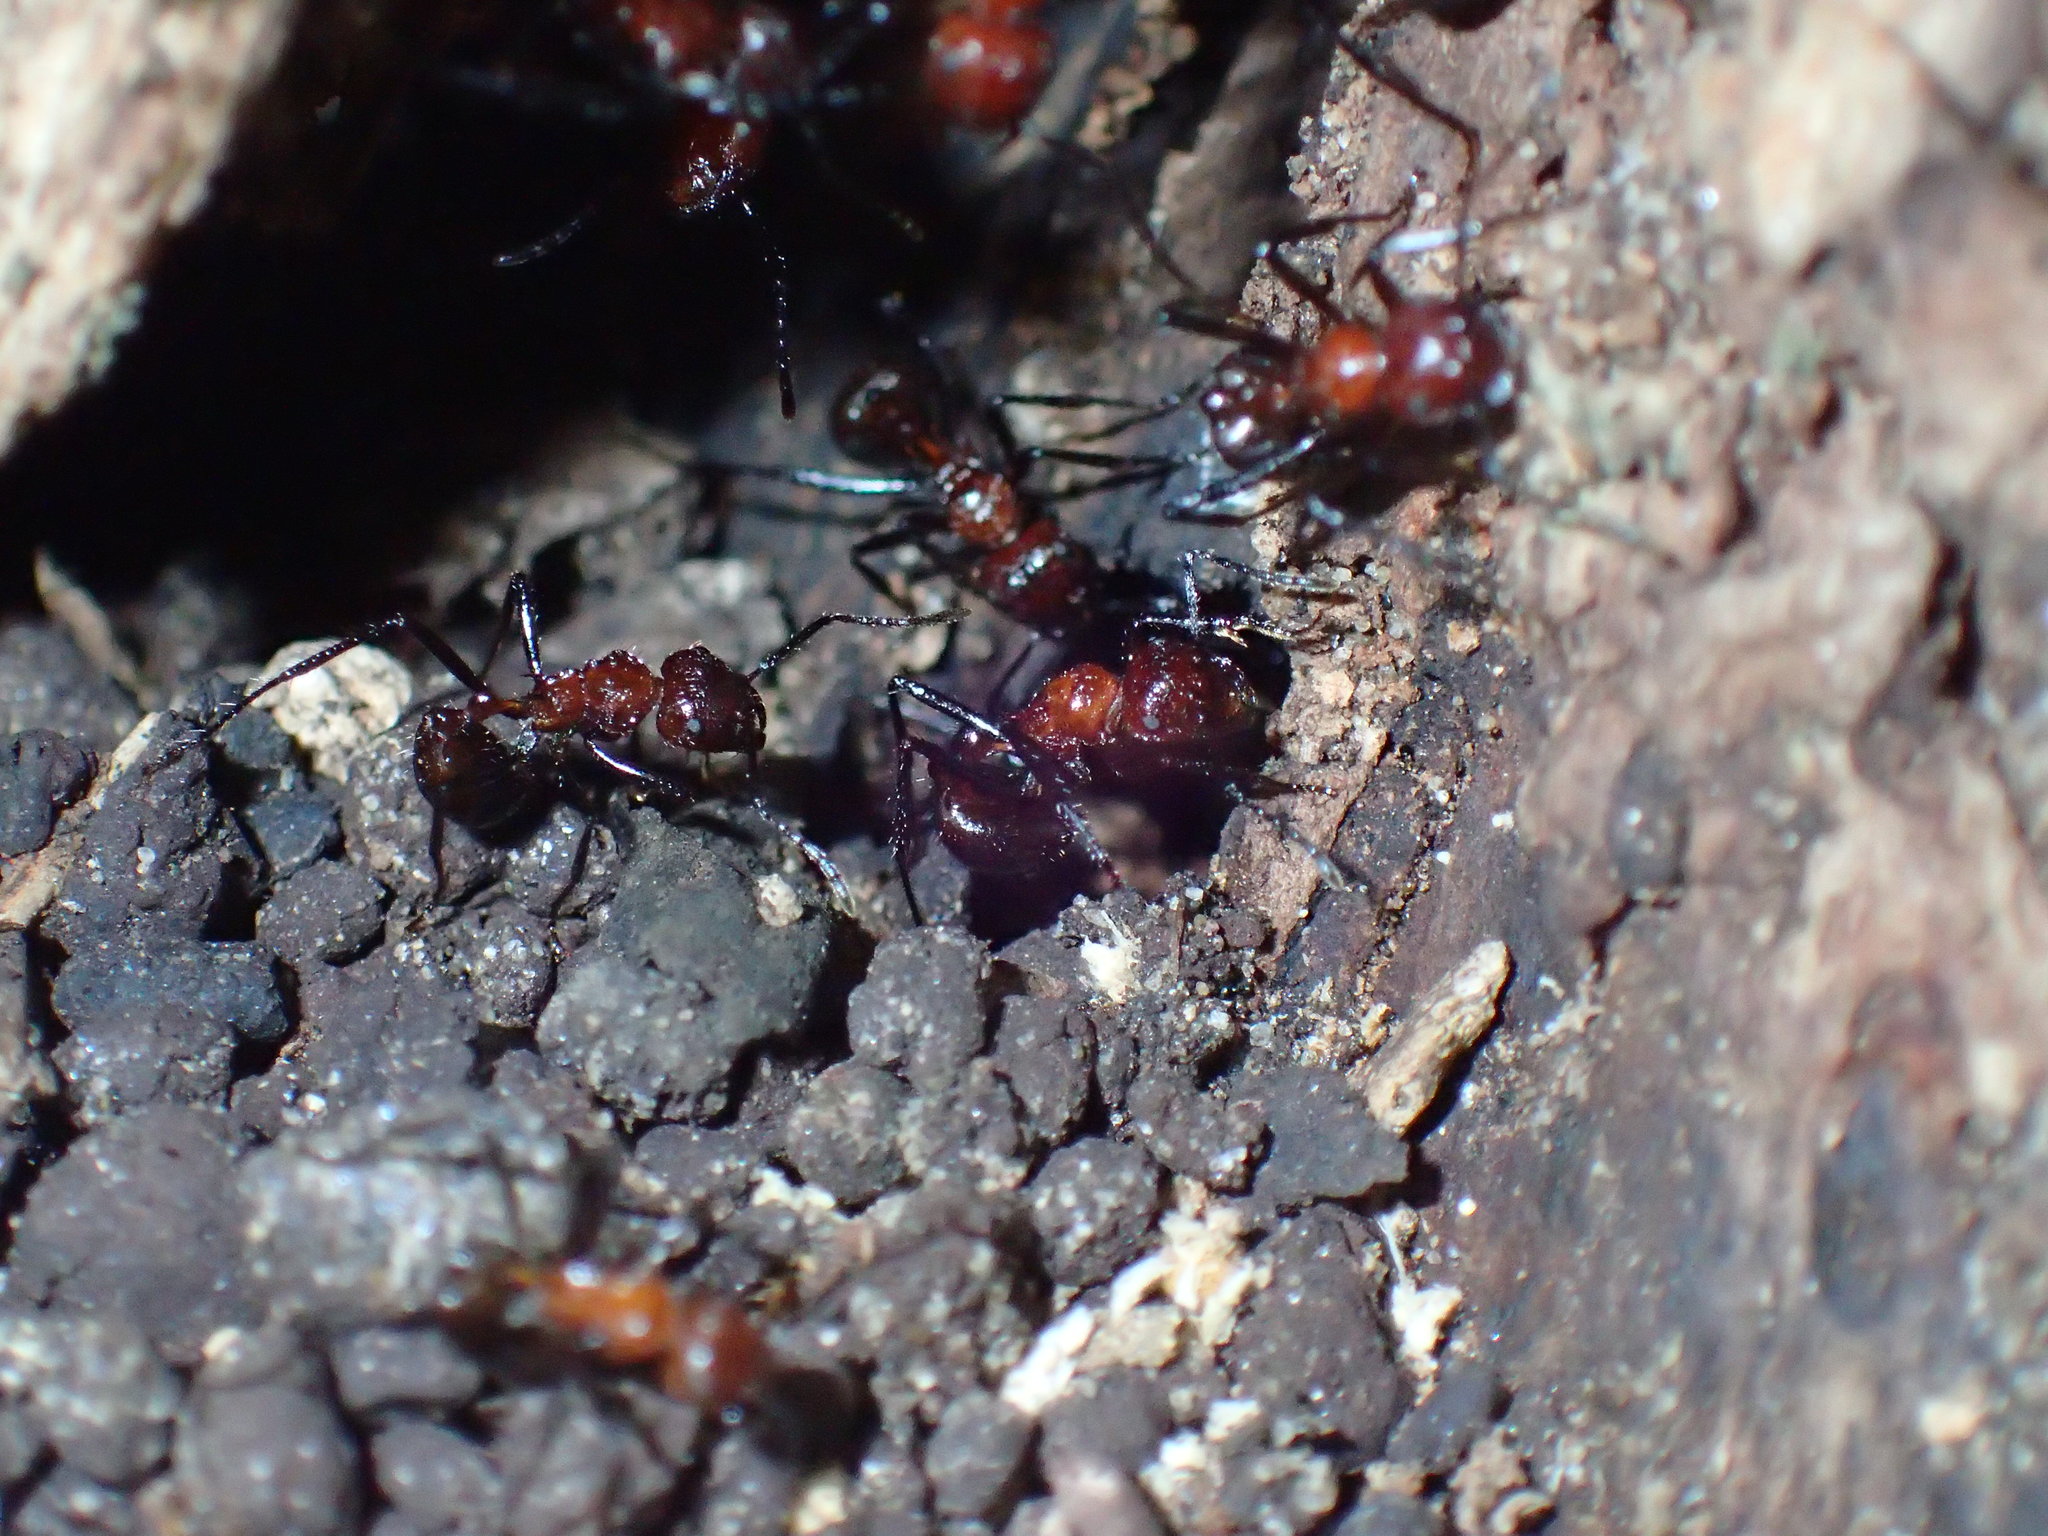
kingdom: Animalia
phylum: Arthropoda
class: Insecta
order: Hymenoptera
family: Formicidae
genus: Myrmicaria
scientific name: Myrmicaria natalensis
